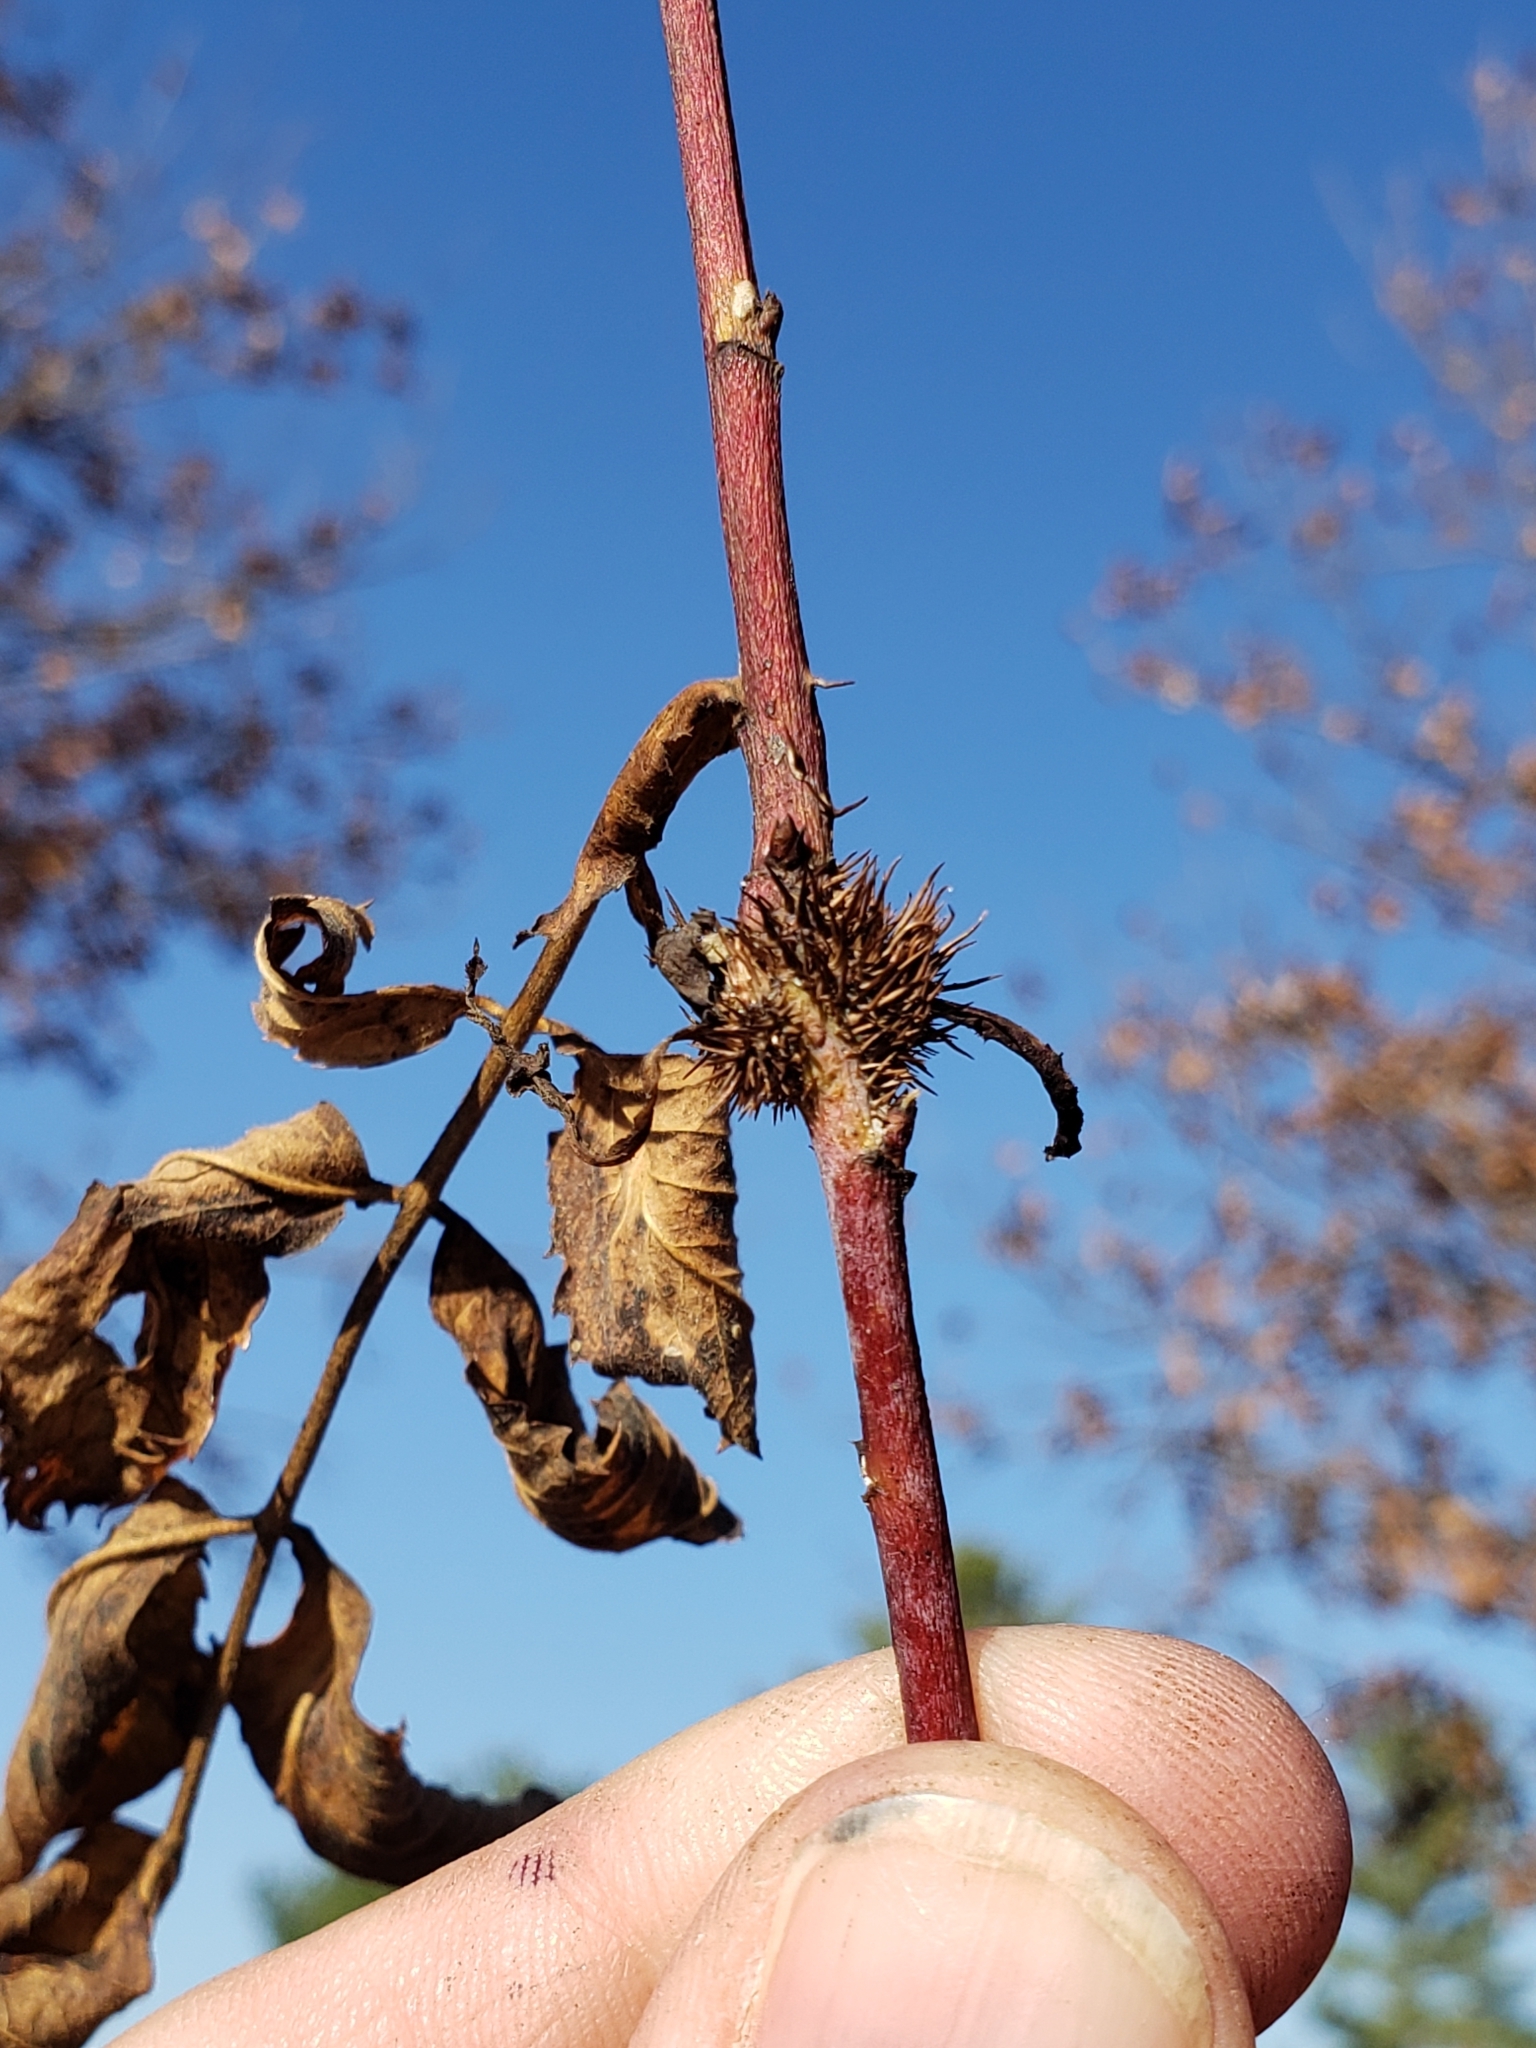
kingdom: Animalia
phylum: Arthropoda
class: Insecta
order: Hymenoptera
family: Cynipidae
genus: Diplolepis
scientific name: Diplolepis spinosa
